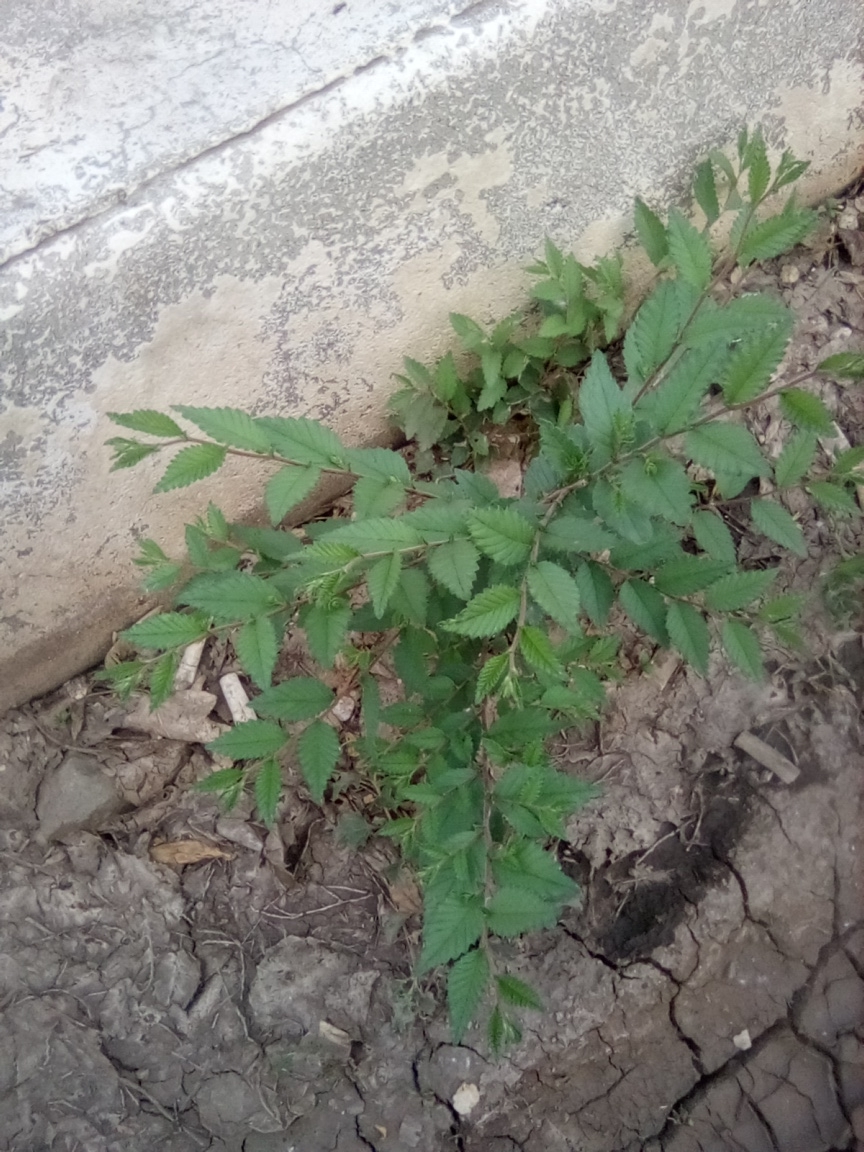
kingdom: Plantae
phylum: Tracheophyta
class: Magnoliopsida
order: Rosales
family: Ulmaceae
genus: Ulmus
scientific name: Ulmus pumila
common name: Siberian elm
